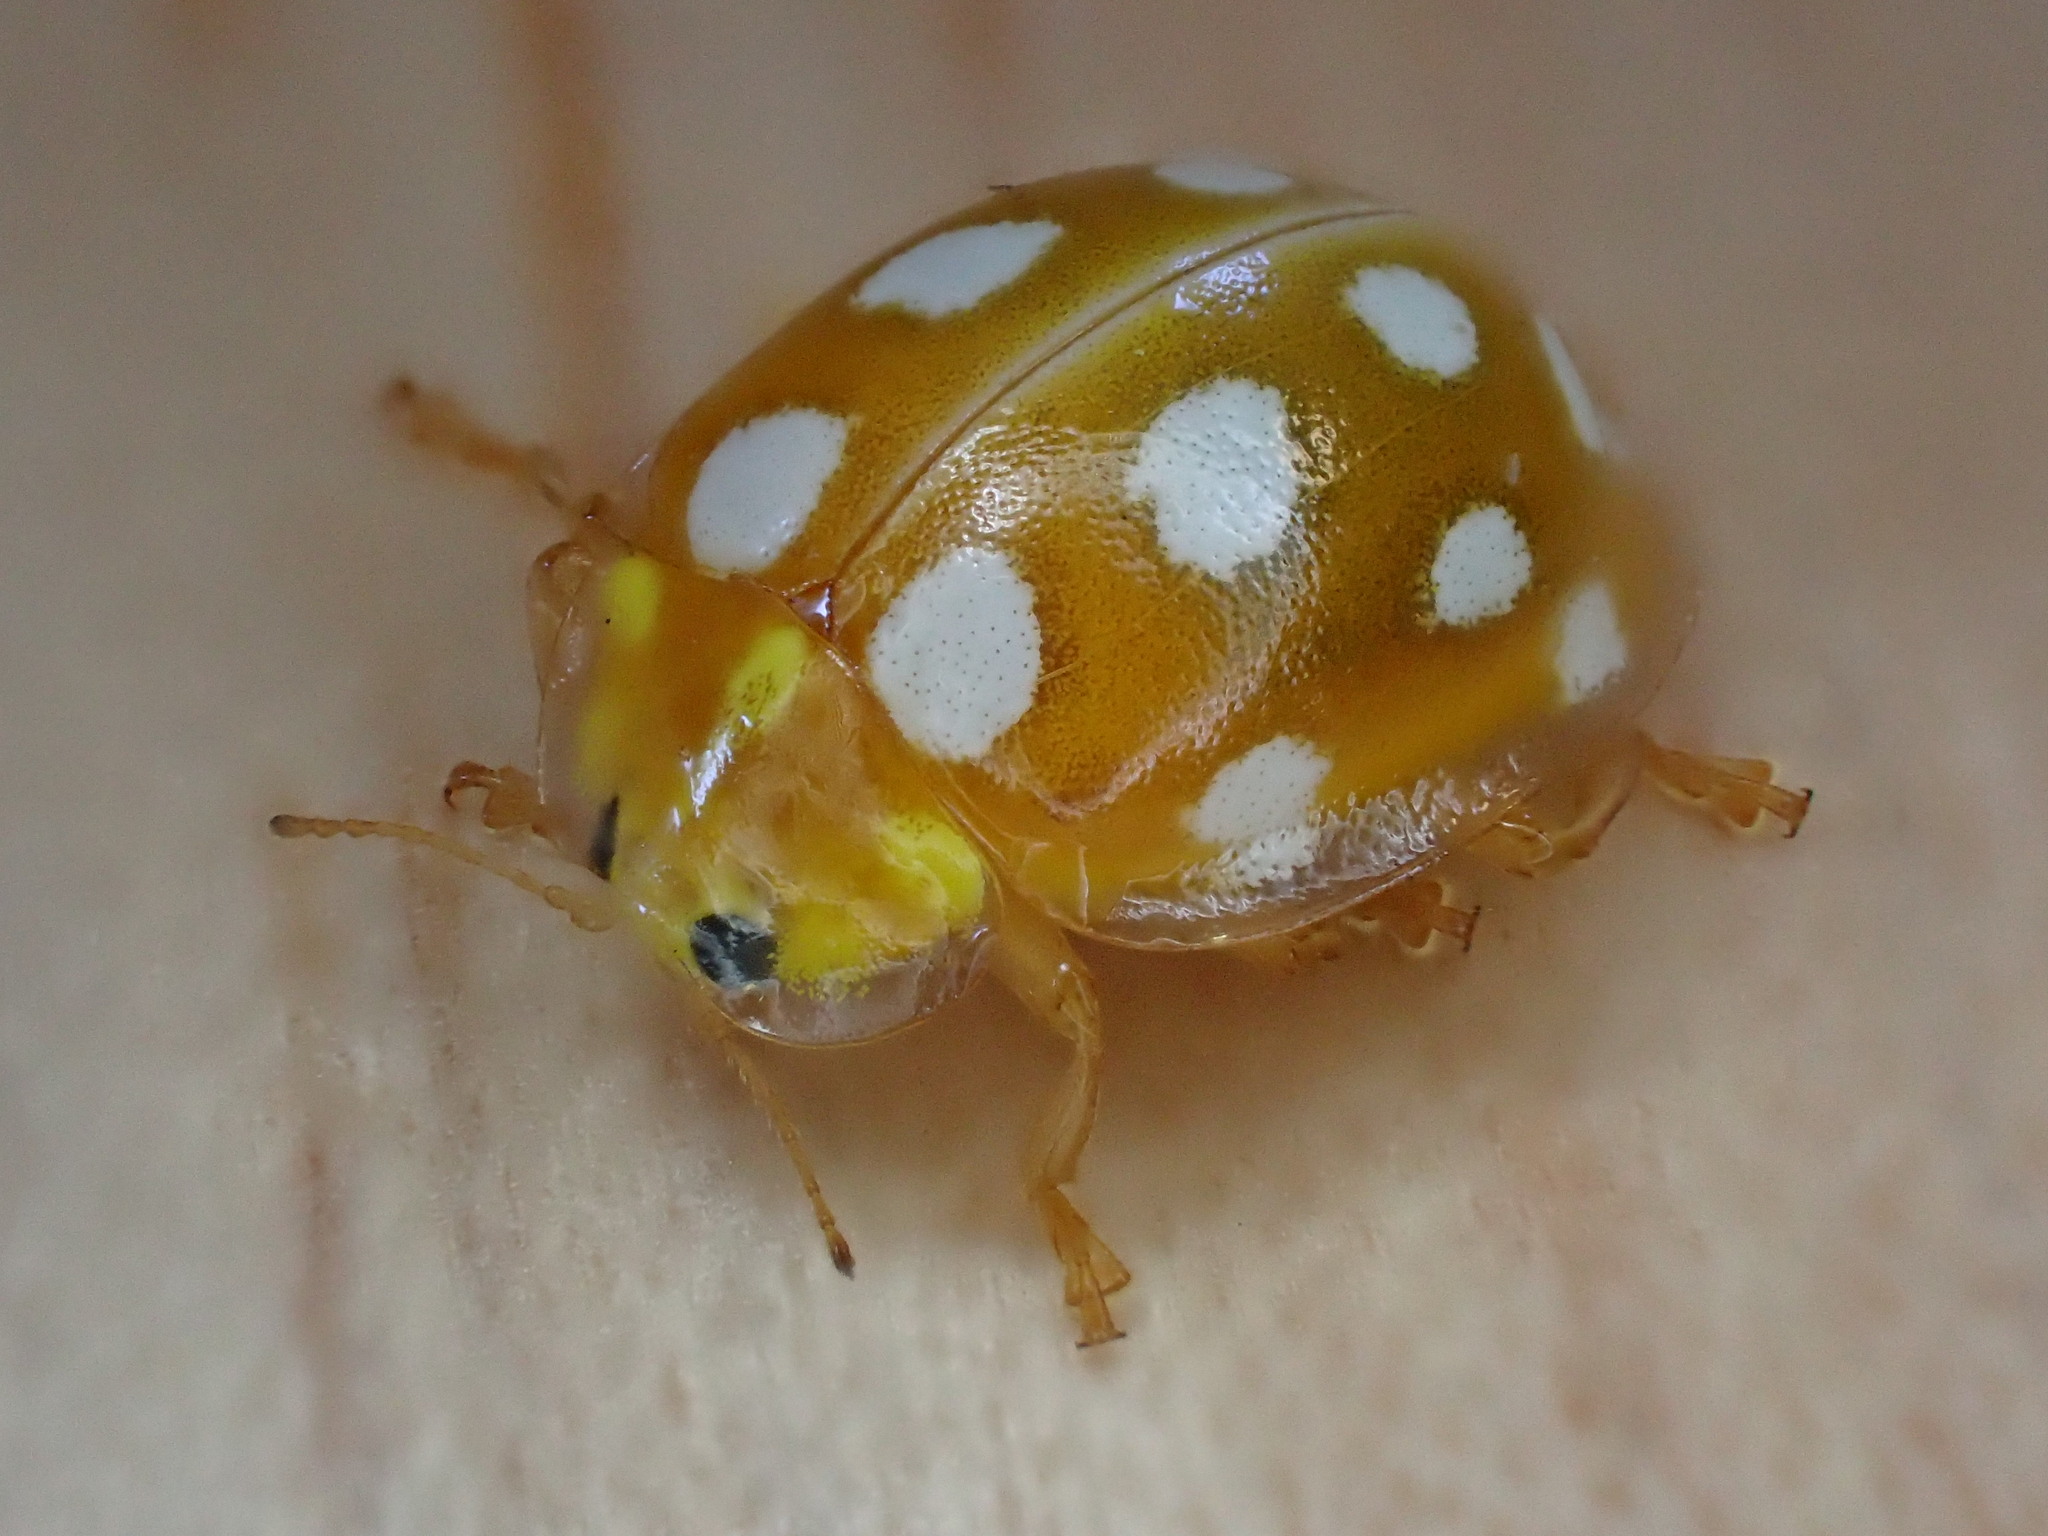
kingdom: Animalia
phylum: Arthropoda
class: Insecta
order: Coleoptera
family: Coccinellidae
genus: Halyzia
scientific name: Halyzia sedecimguttata
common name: Orange ladybird
